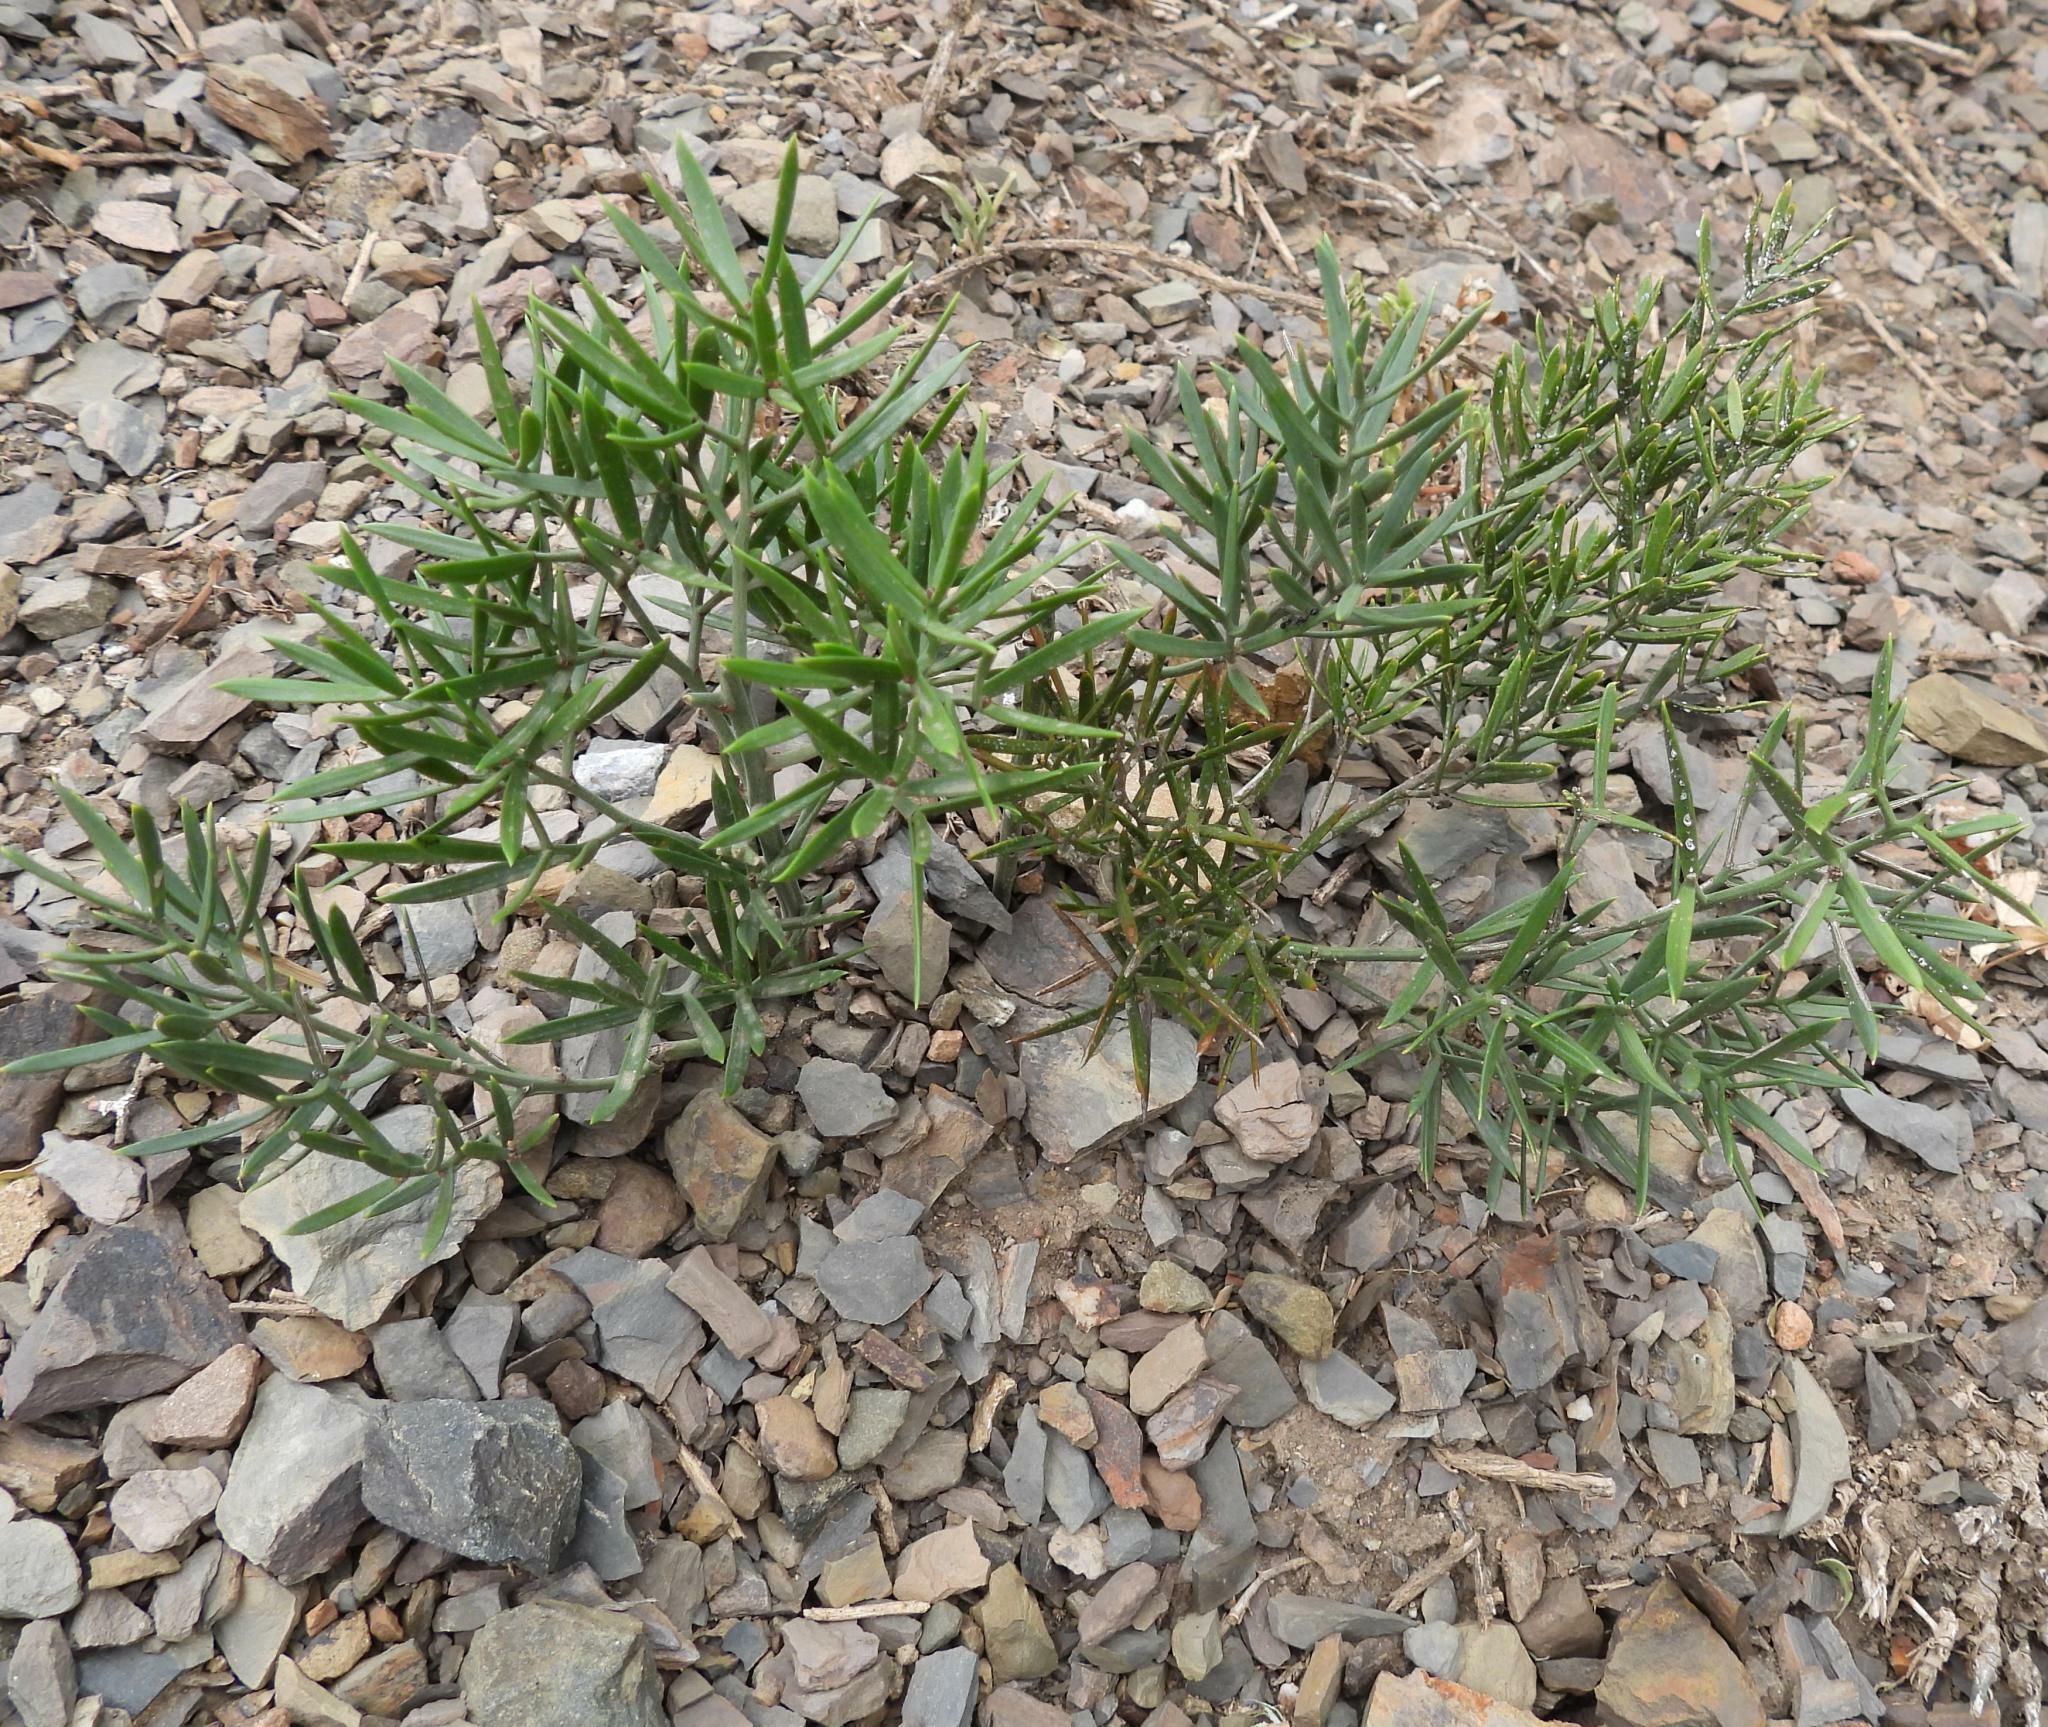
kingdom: Plantae
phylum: Tracheophyta
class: Liliopsida
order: Asparagales
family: Asparagaceae
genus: Asparagus
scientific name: Asparagus striatus
